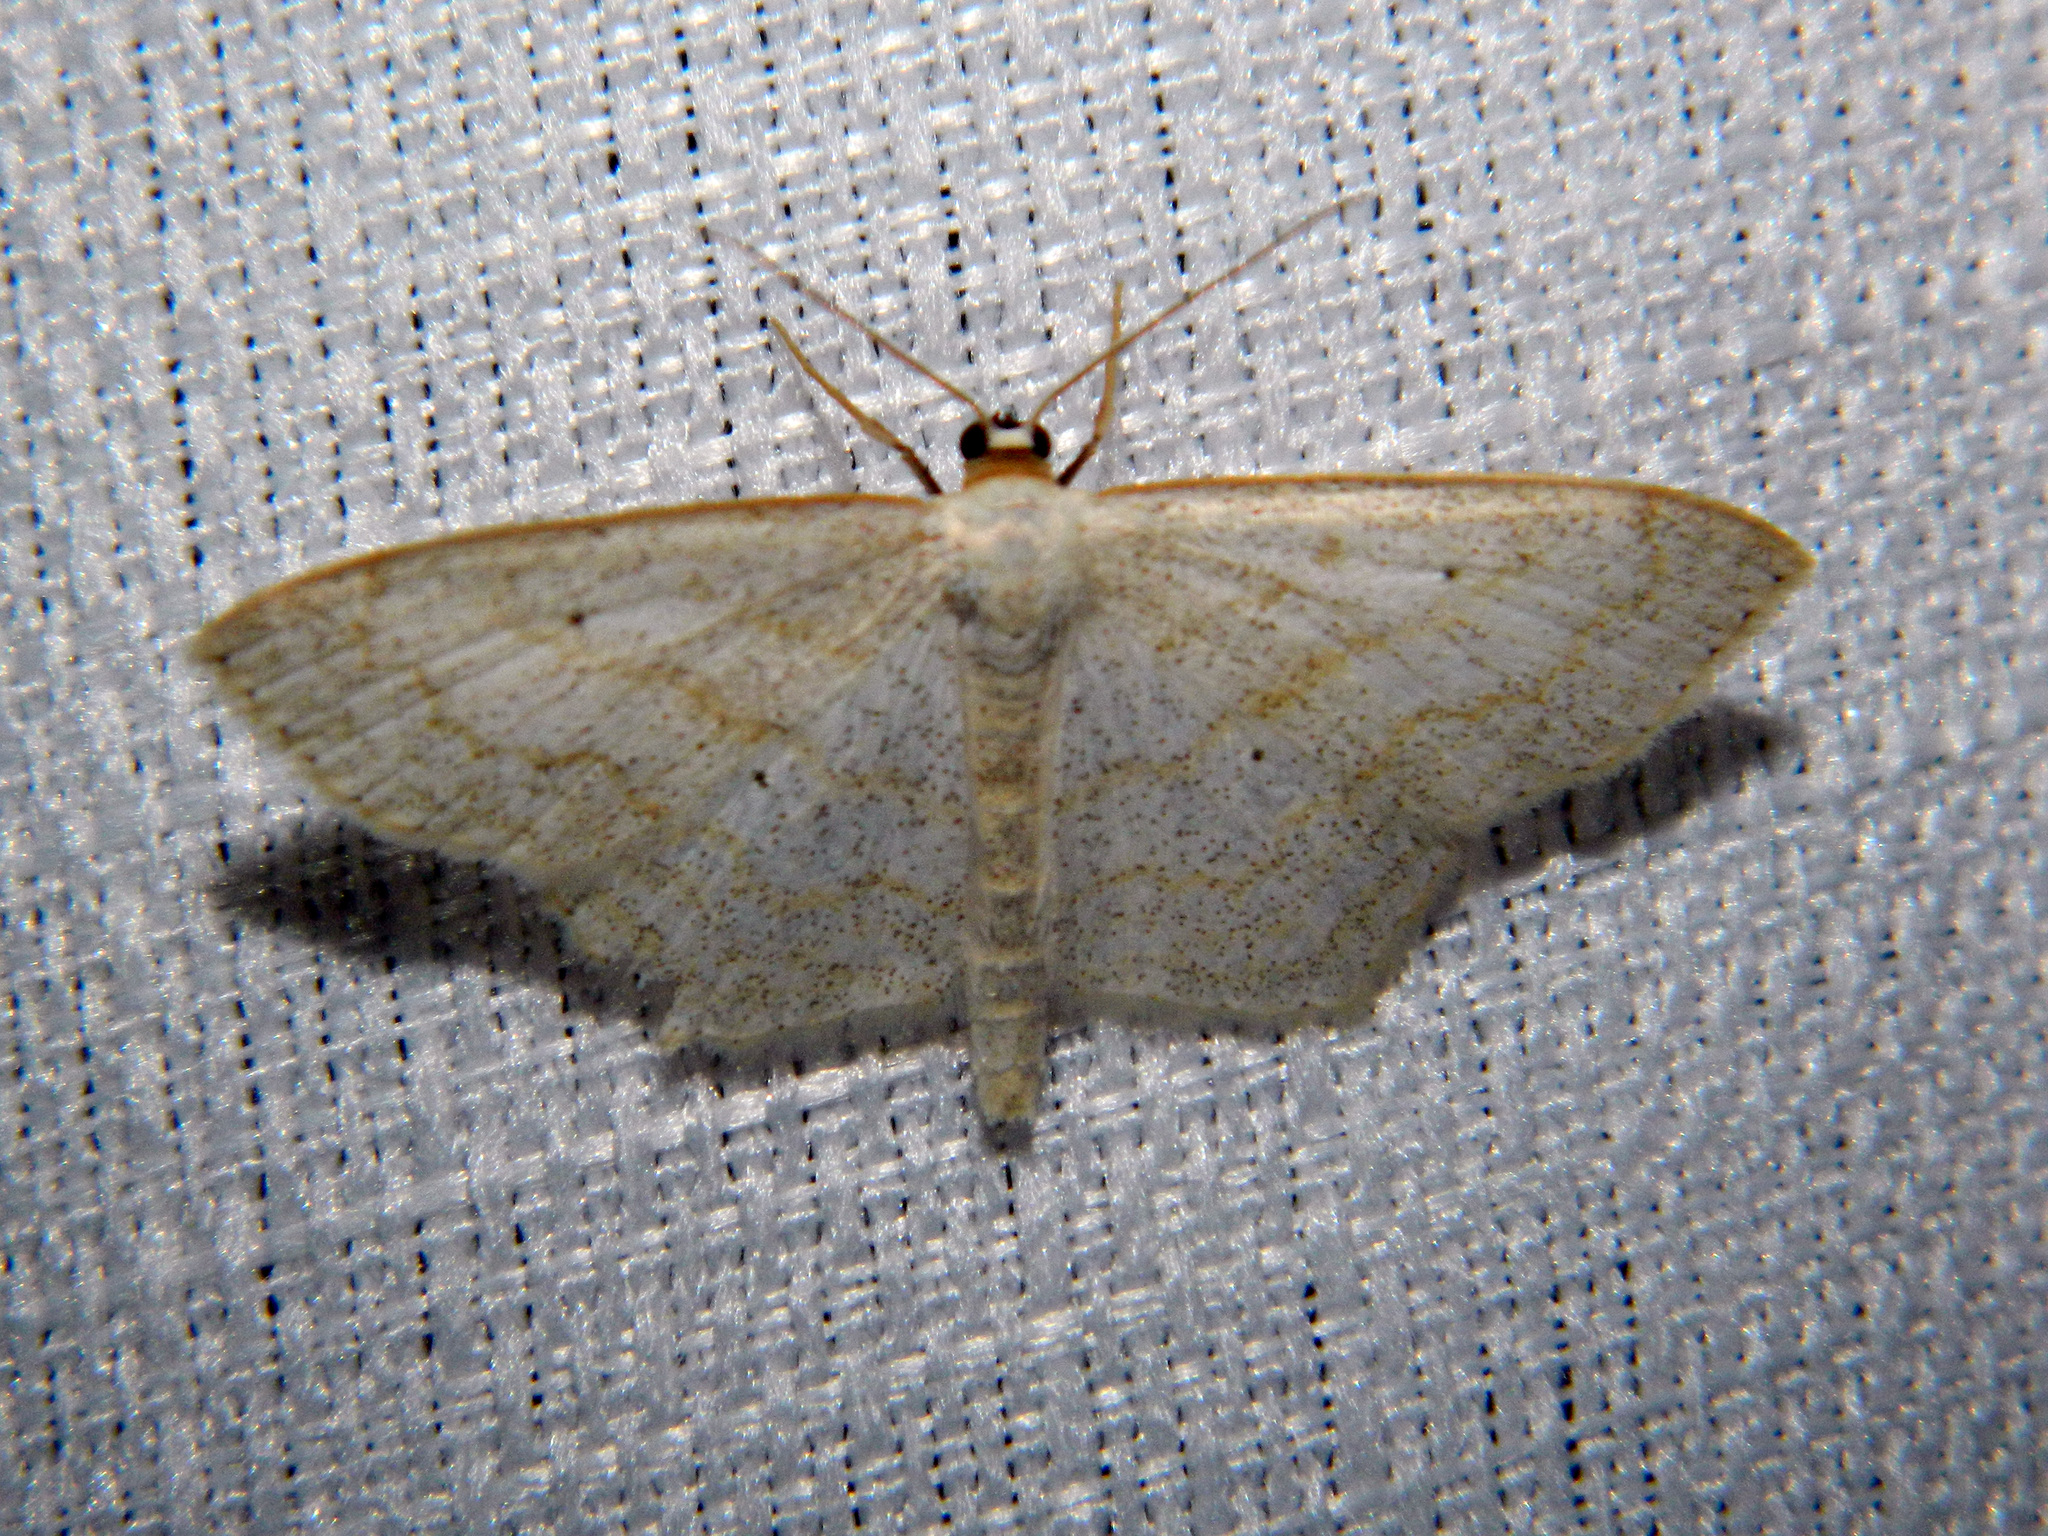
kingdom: Animalia
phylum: Arthropoda
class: Insecta
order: Lepidoptera
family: Geometridae
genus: Scopula
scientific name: Scopula limboundata
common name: Large lace border
